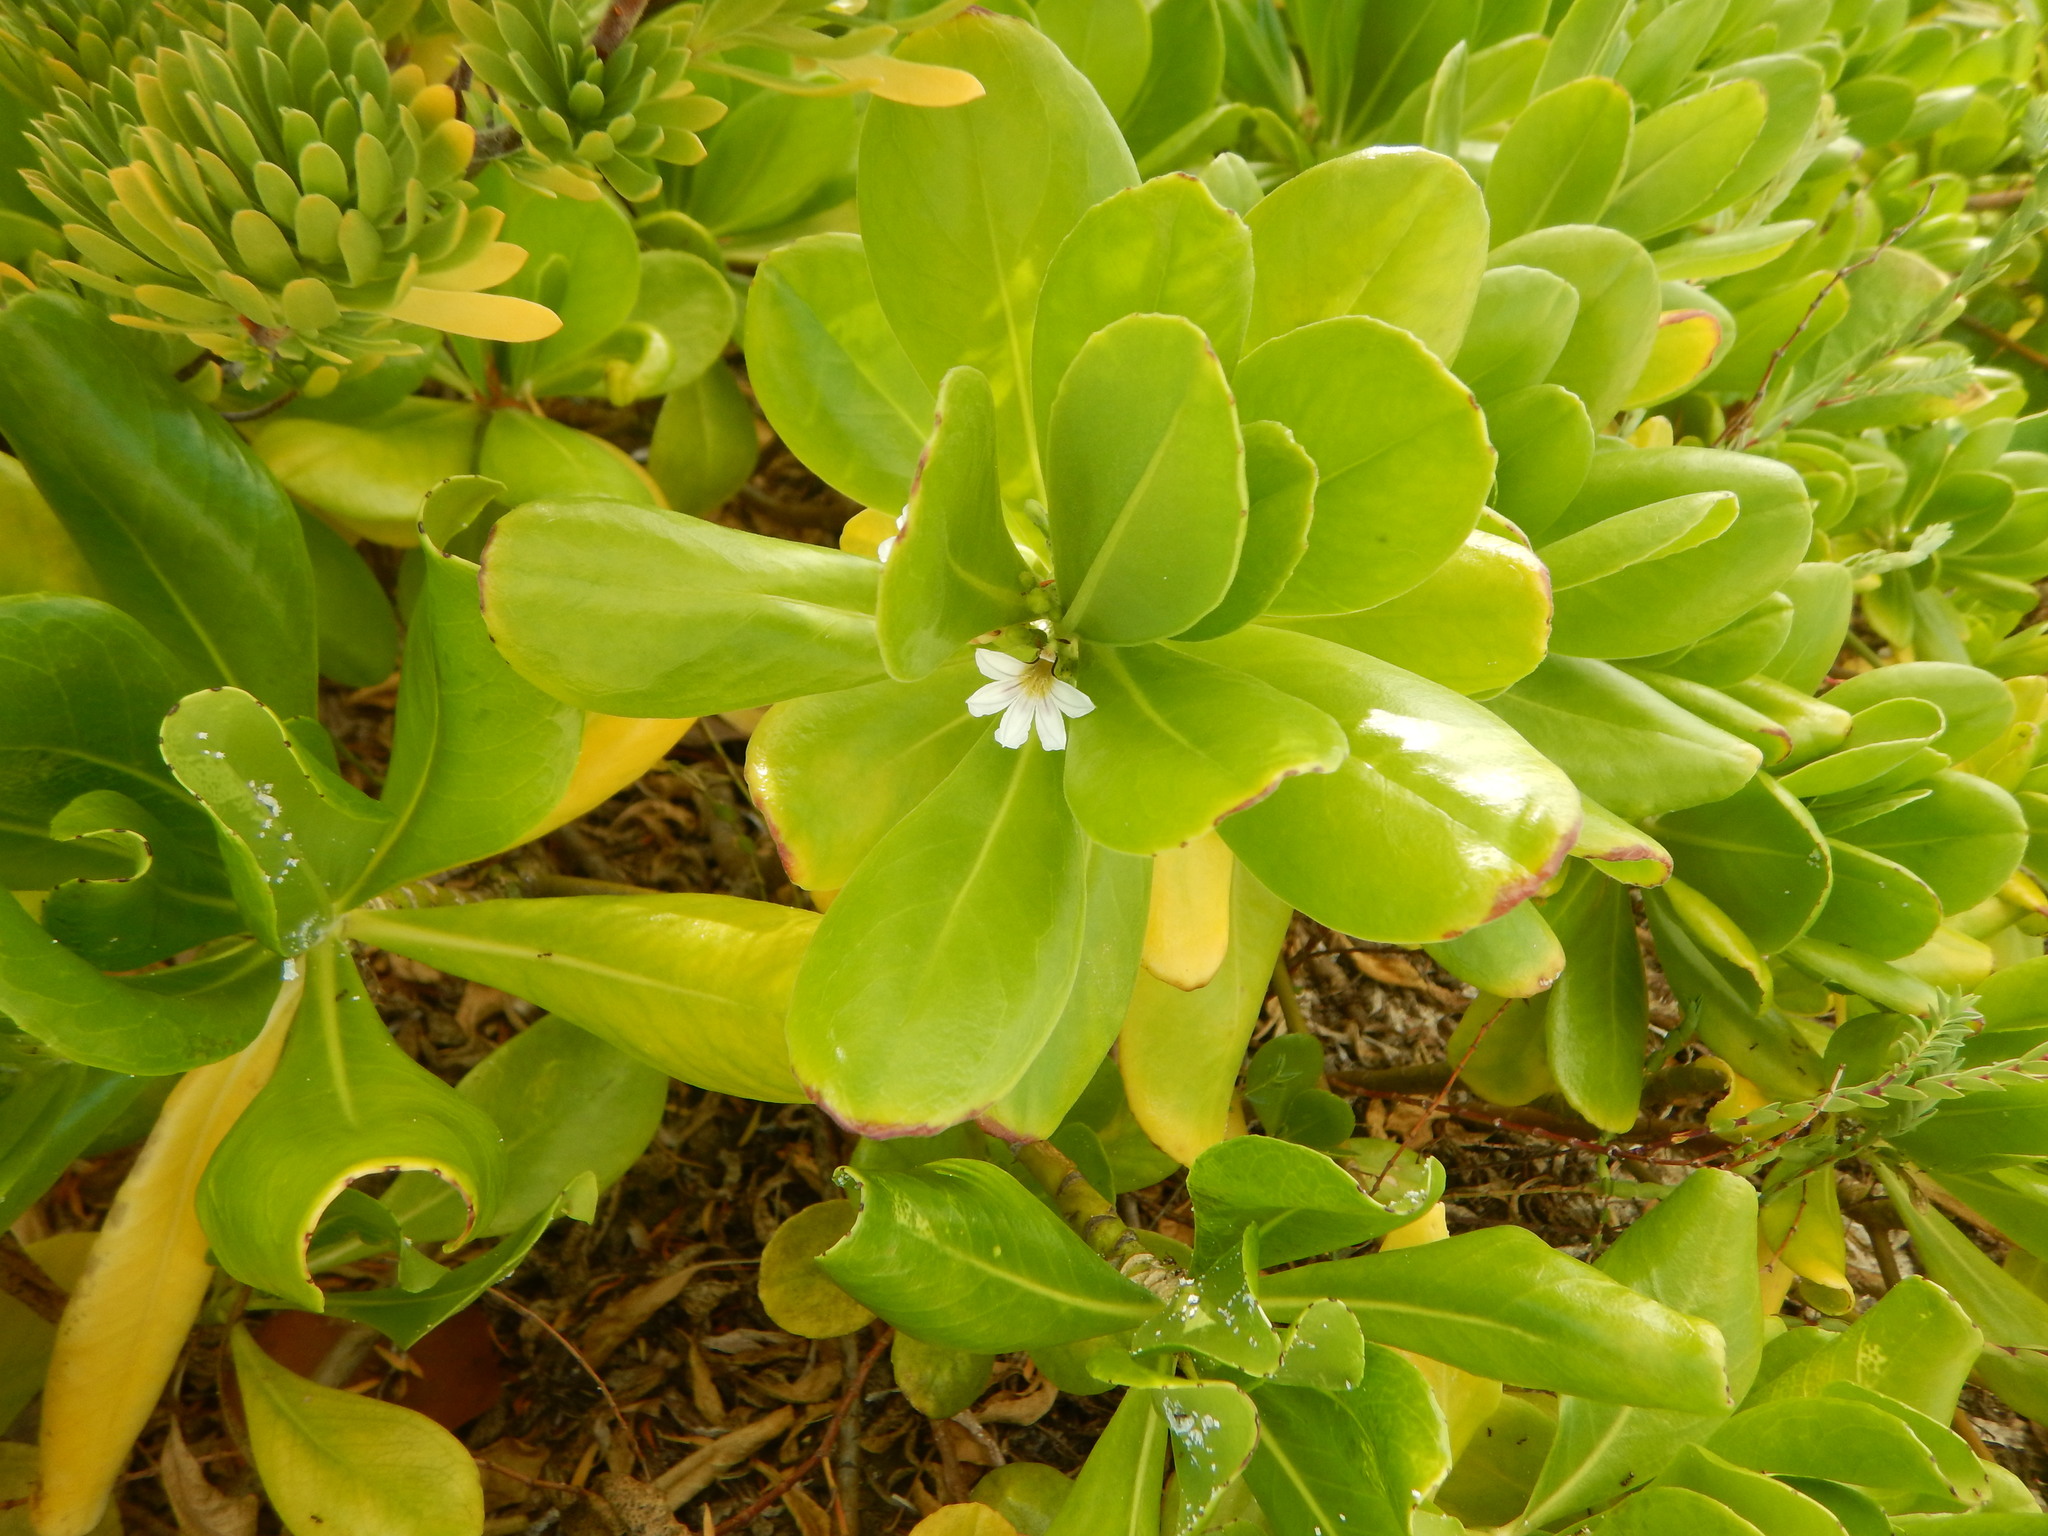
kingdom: Plantae
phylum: Tracheophyta
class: Magnoliopsida
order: Asterales
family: Goodeniaceae
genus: Scaevola
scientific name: Scaevola taccada
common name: Sea lettucetree
